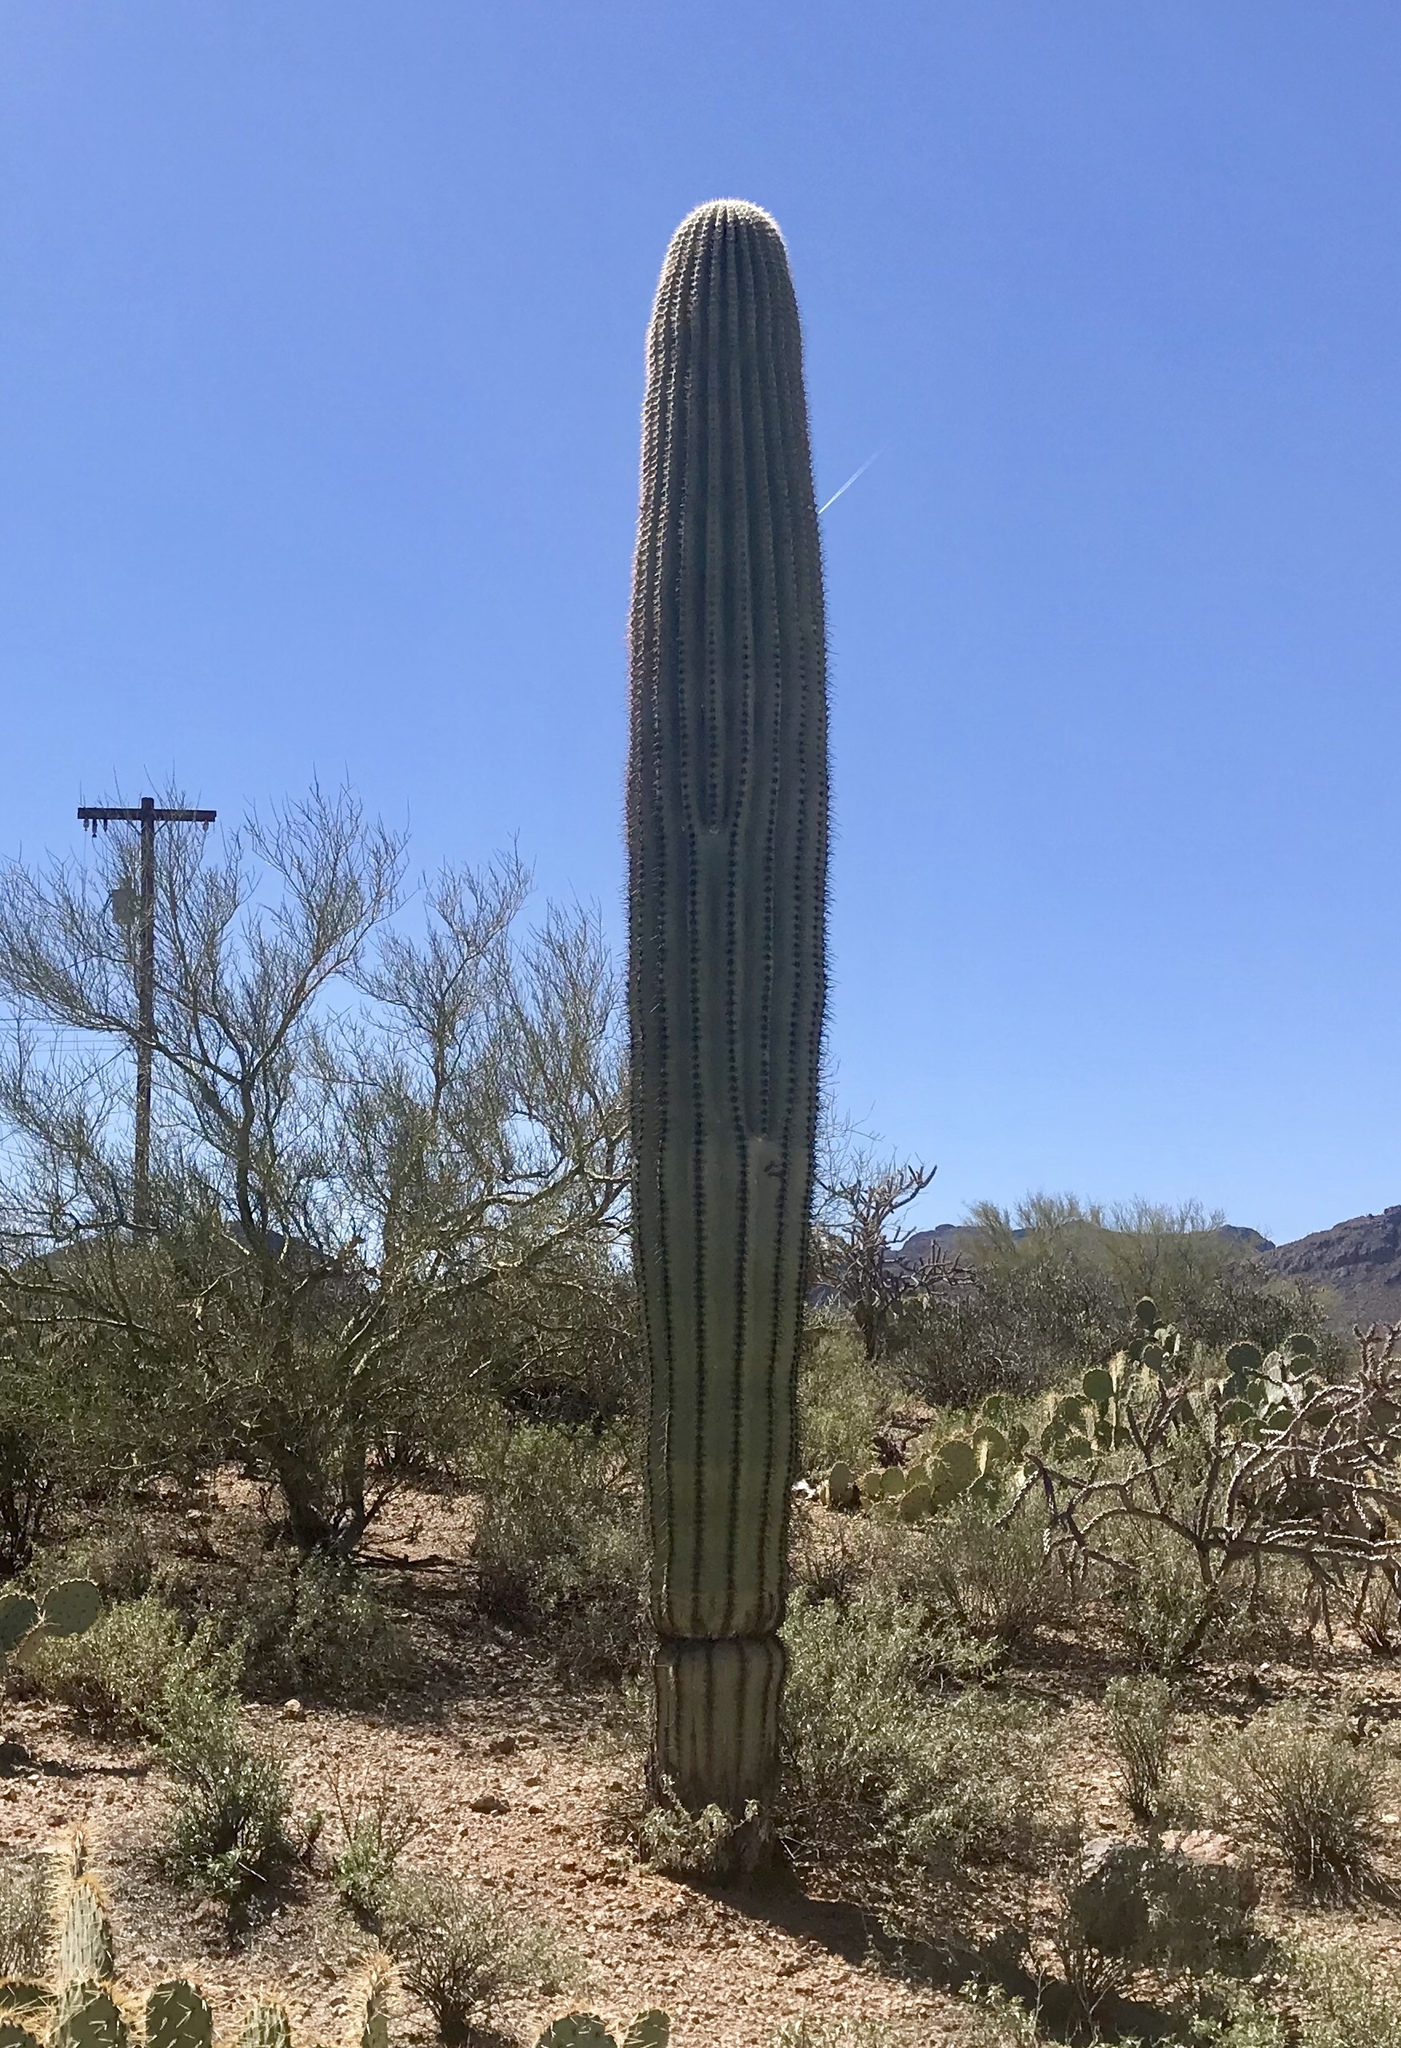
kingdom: Plantae
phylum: Tracheophyta
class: Magnoliopsida
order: Caryophyllales
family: Cactaceae
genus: Carnegiea
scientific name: Carnegiea gigantea
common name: Saguaro
